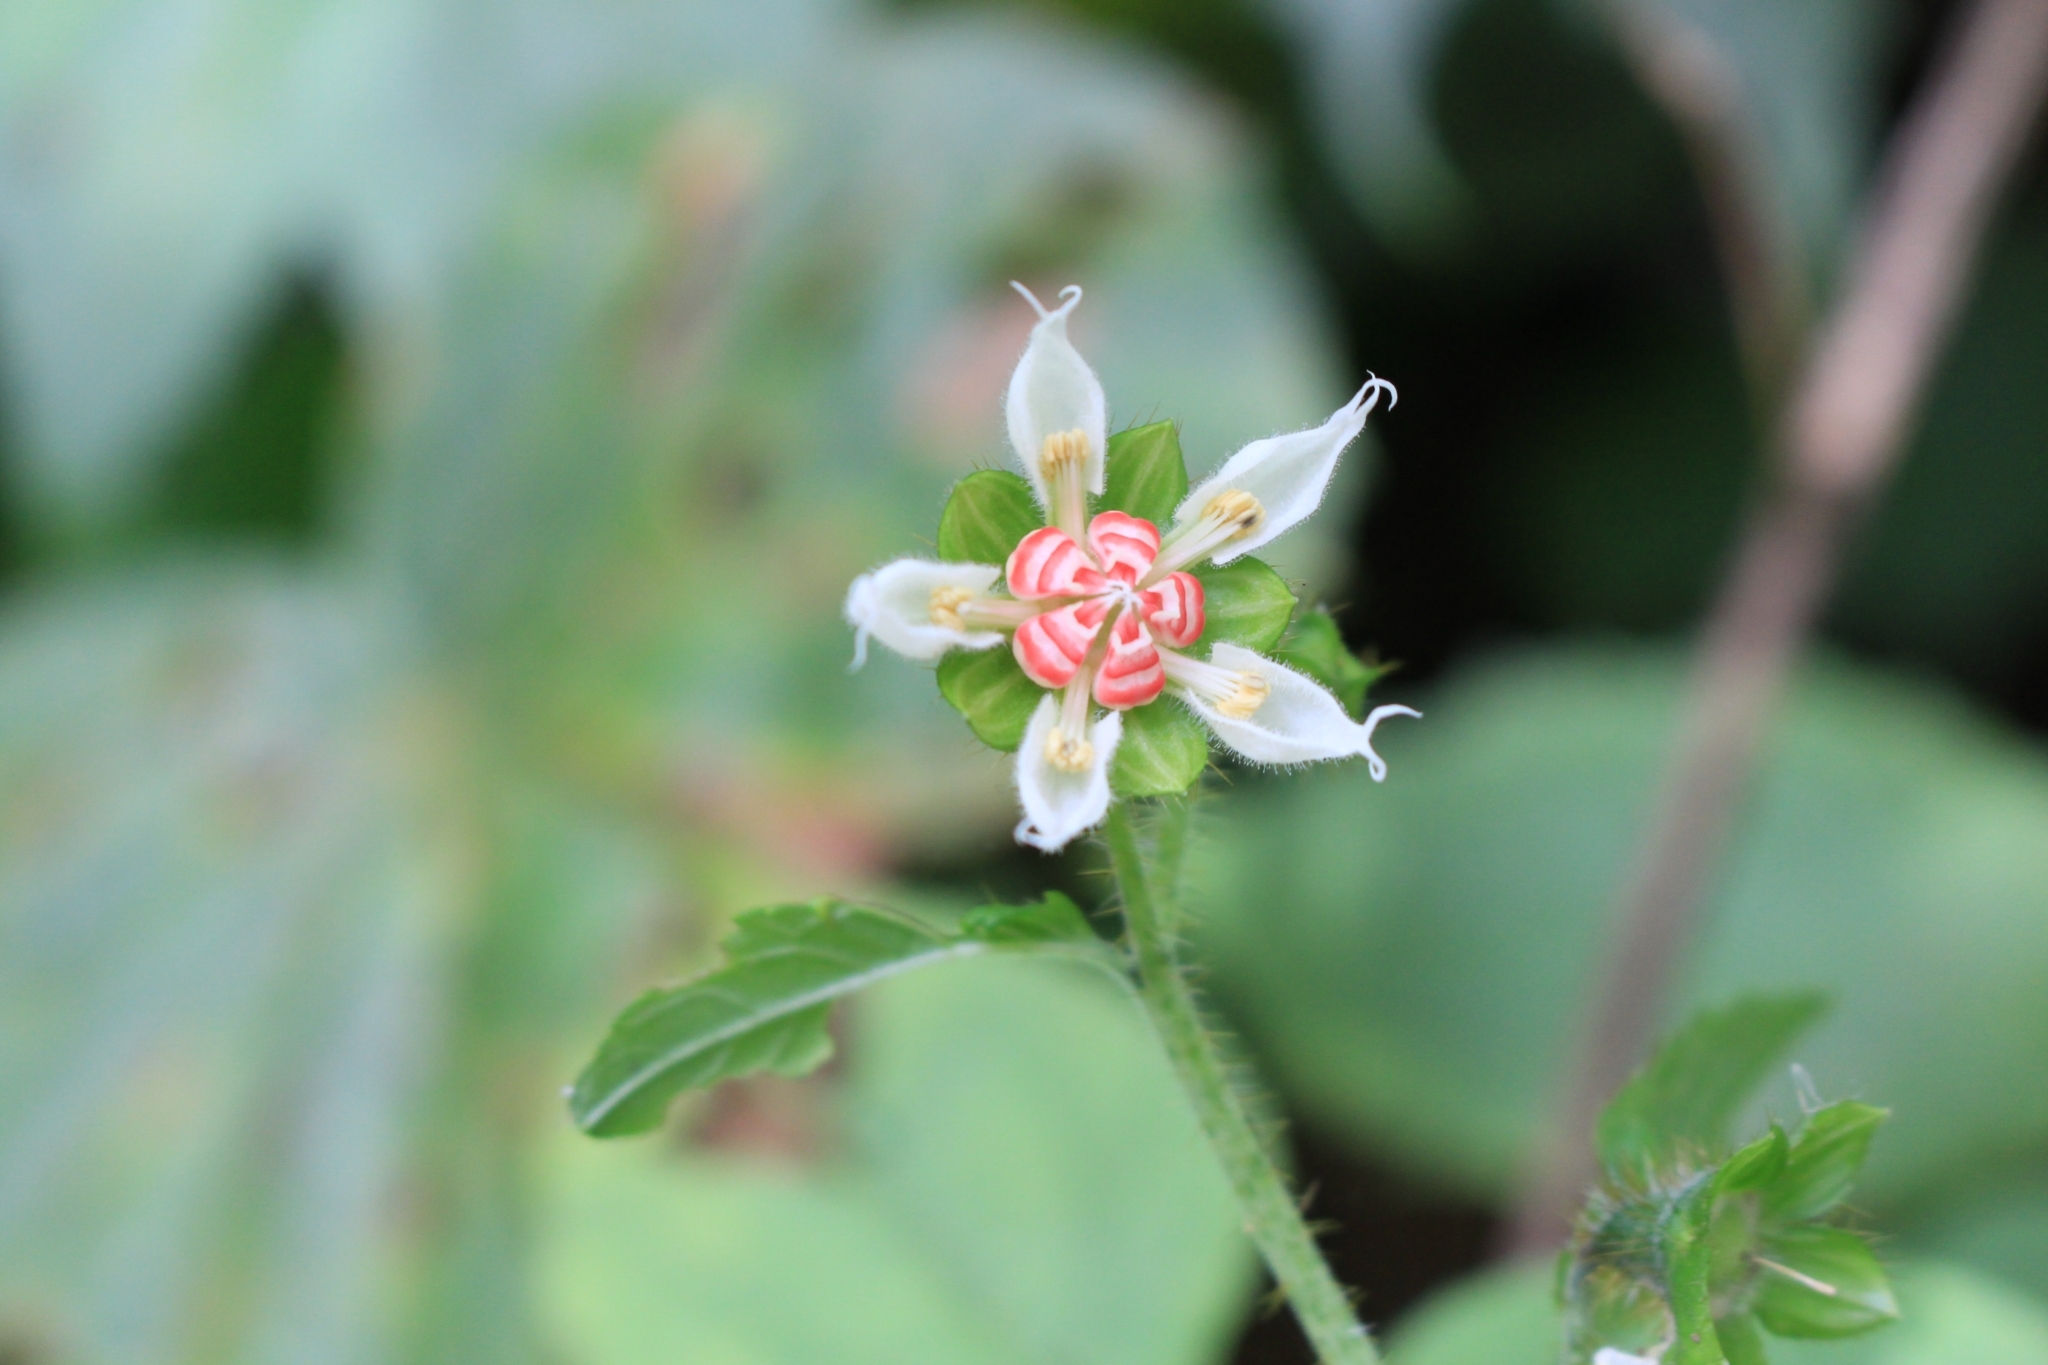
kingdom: Plantae
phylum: Tracheophyta
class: Magnoliopsida
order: Cornales
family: Loasaceae
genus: Nasa
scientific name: Nasa triphylla
